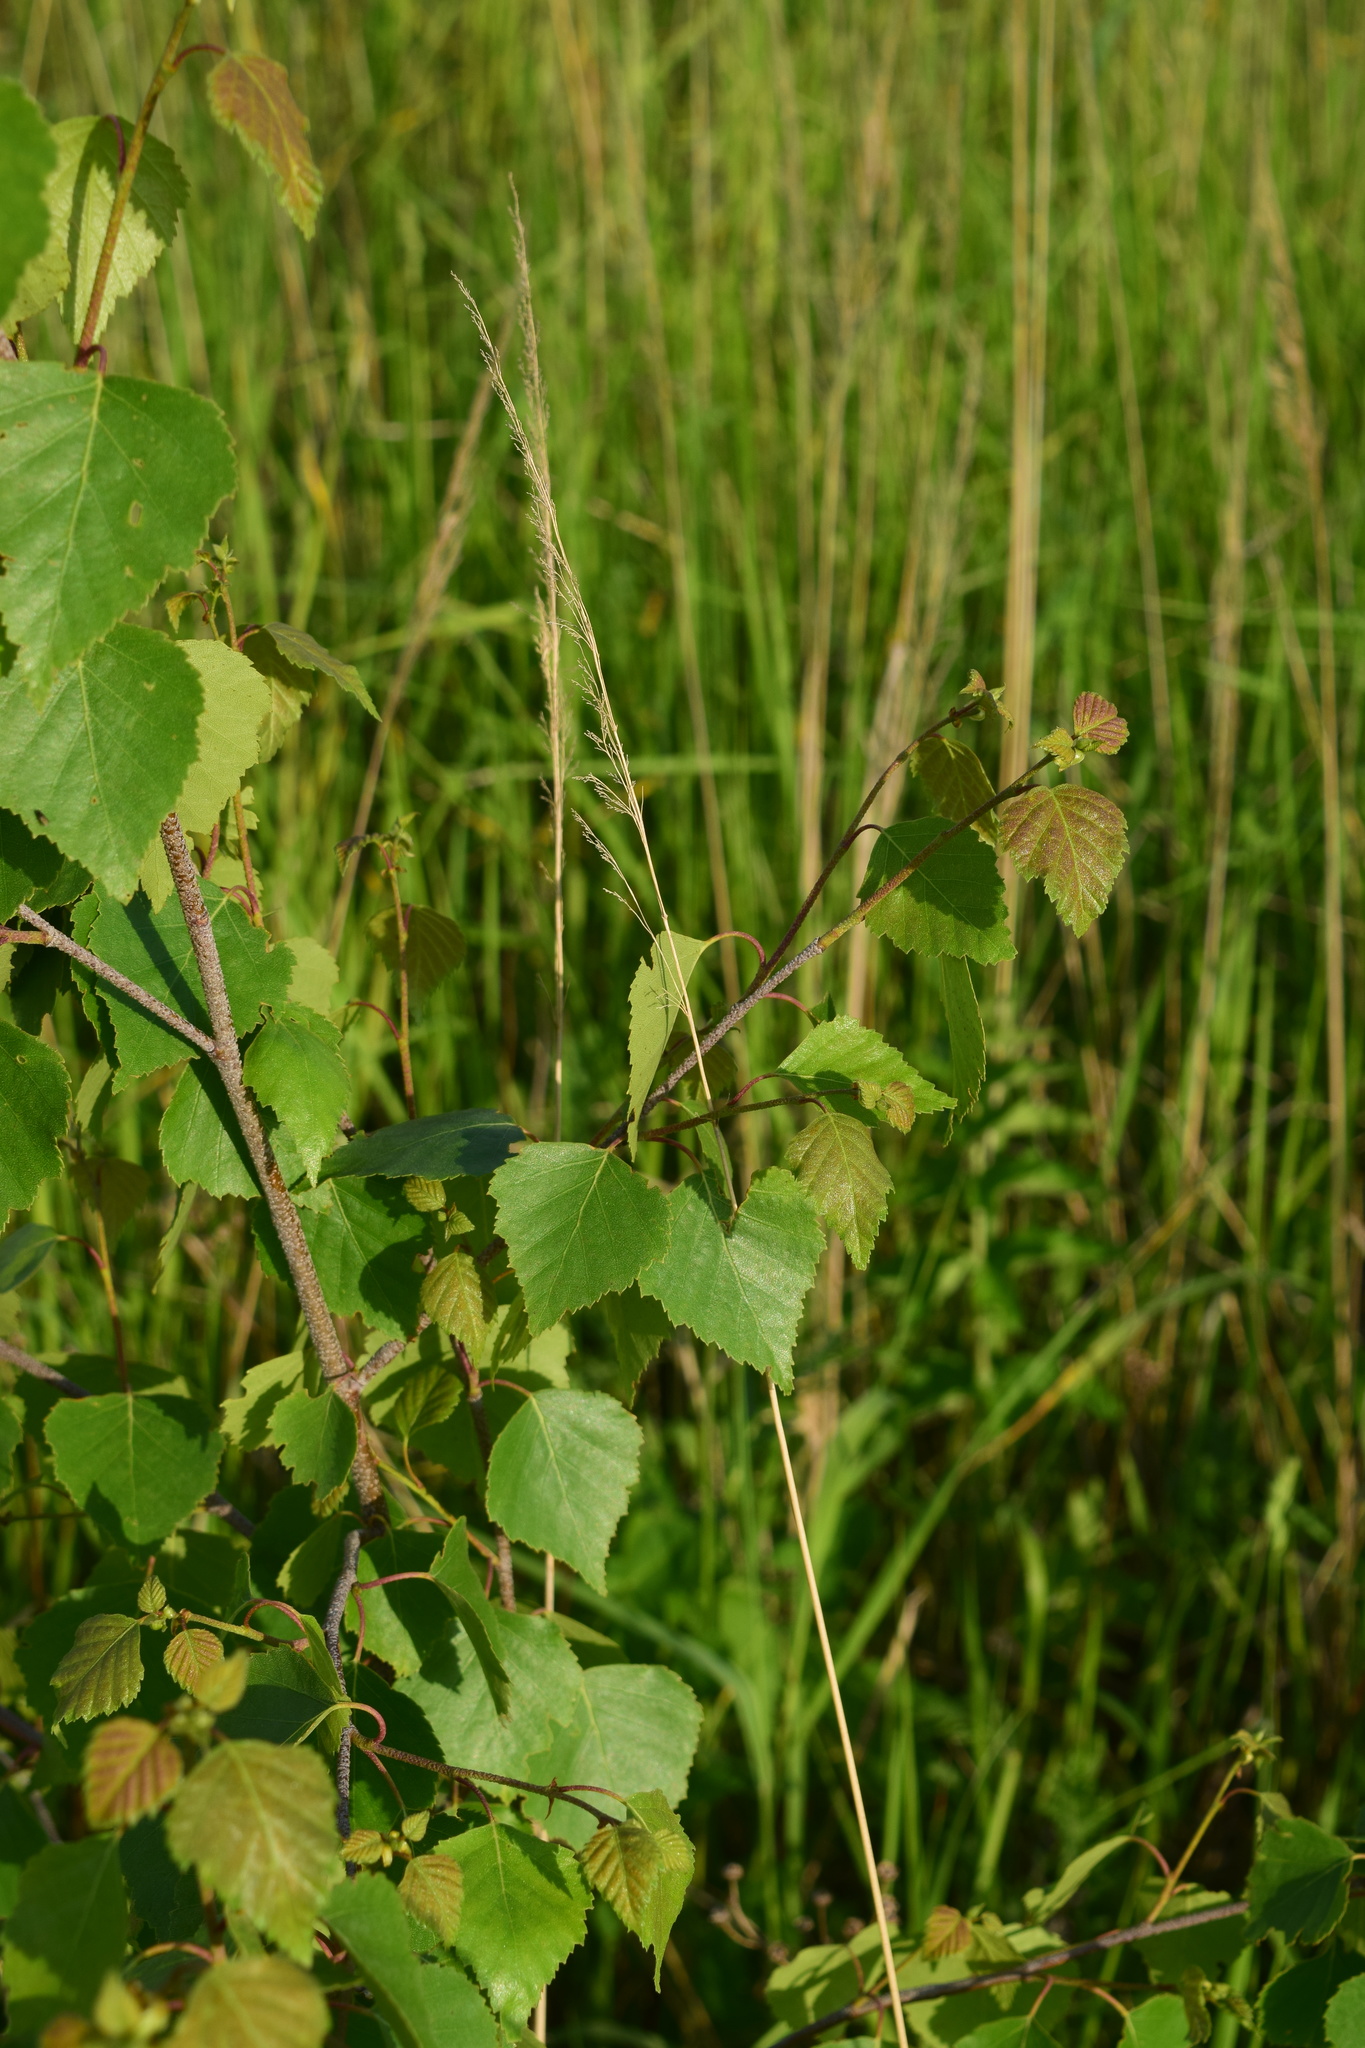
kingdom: Plantae
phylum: Tracheophyta
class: Magnoliopsida
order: Fagales
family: Betulaceae
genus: Betula
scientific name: Betula pendula
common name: Silver birch
